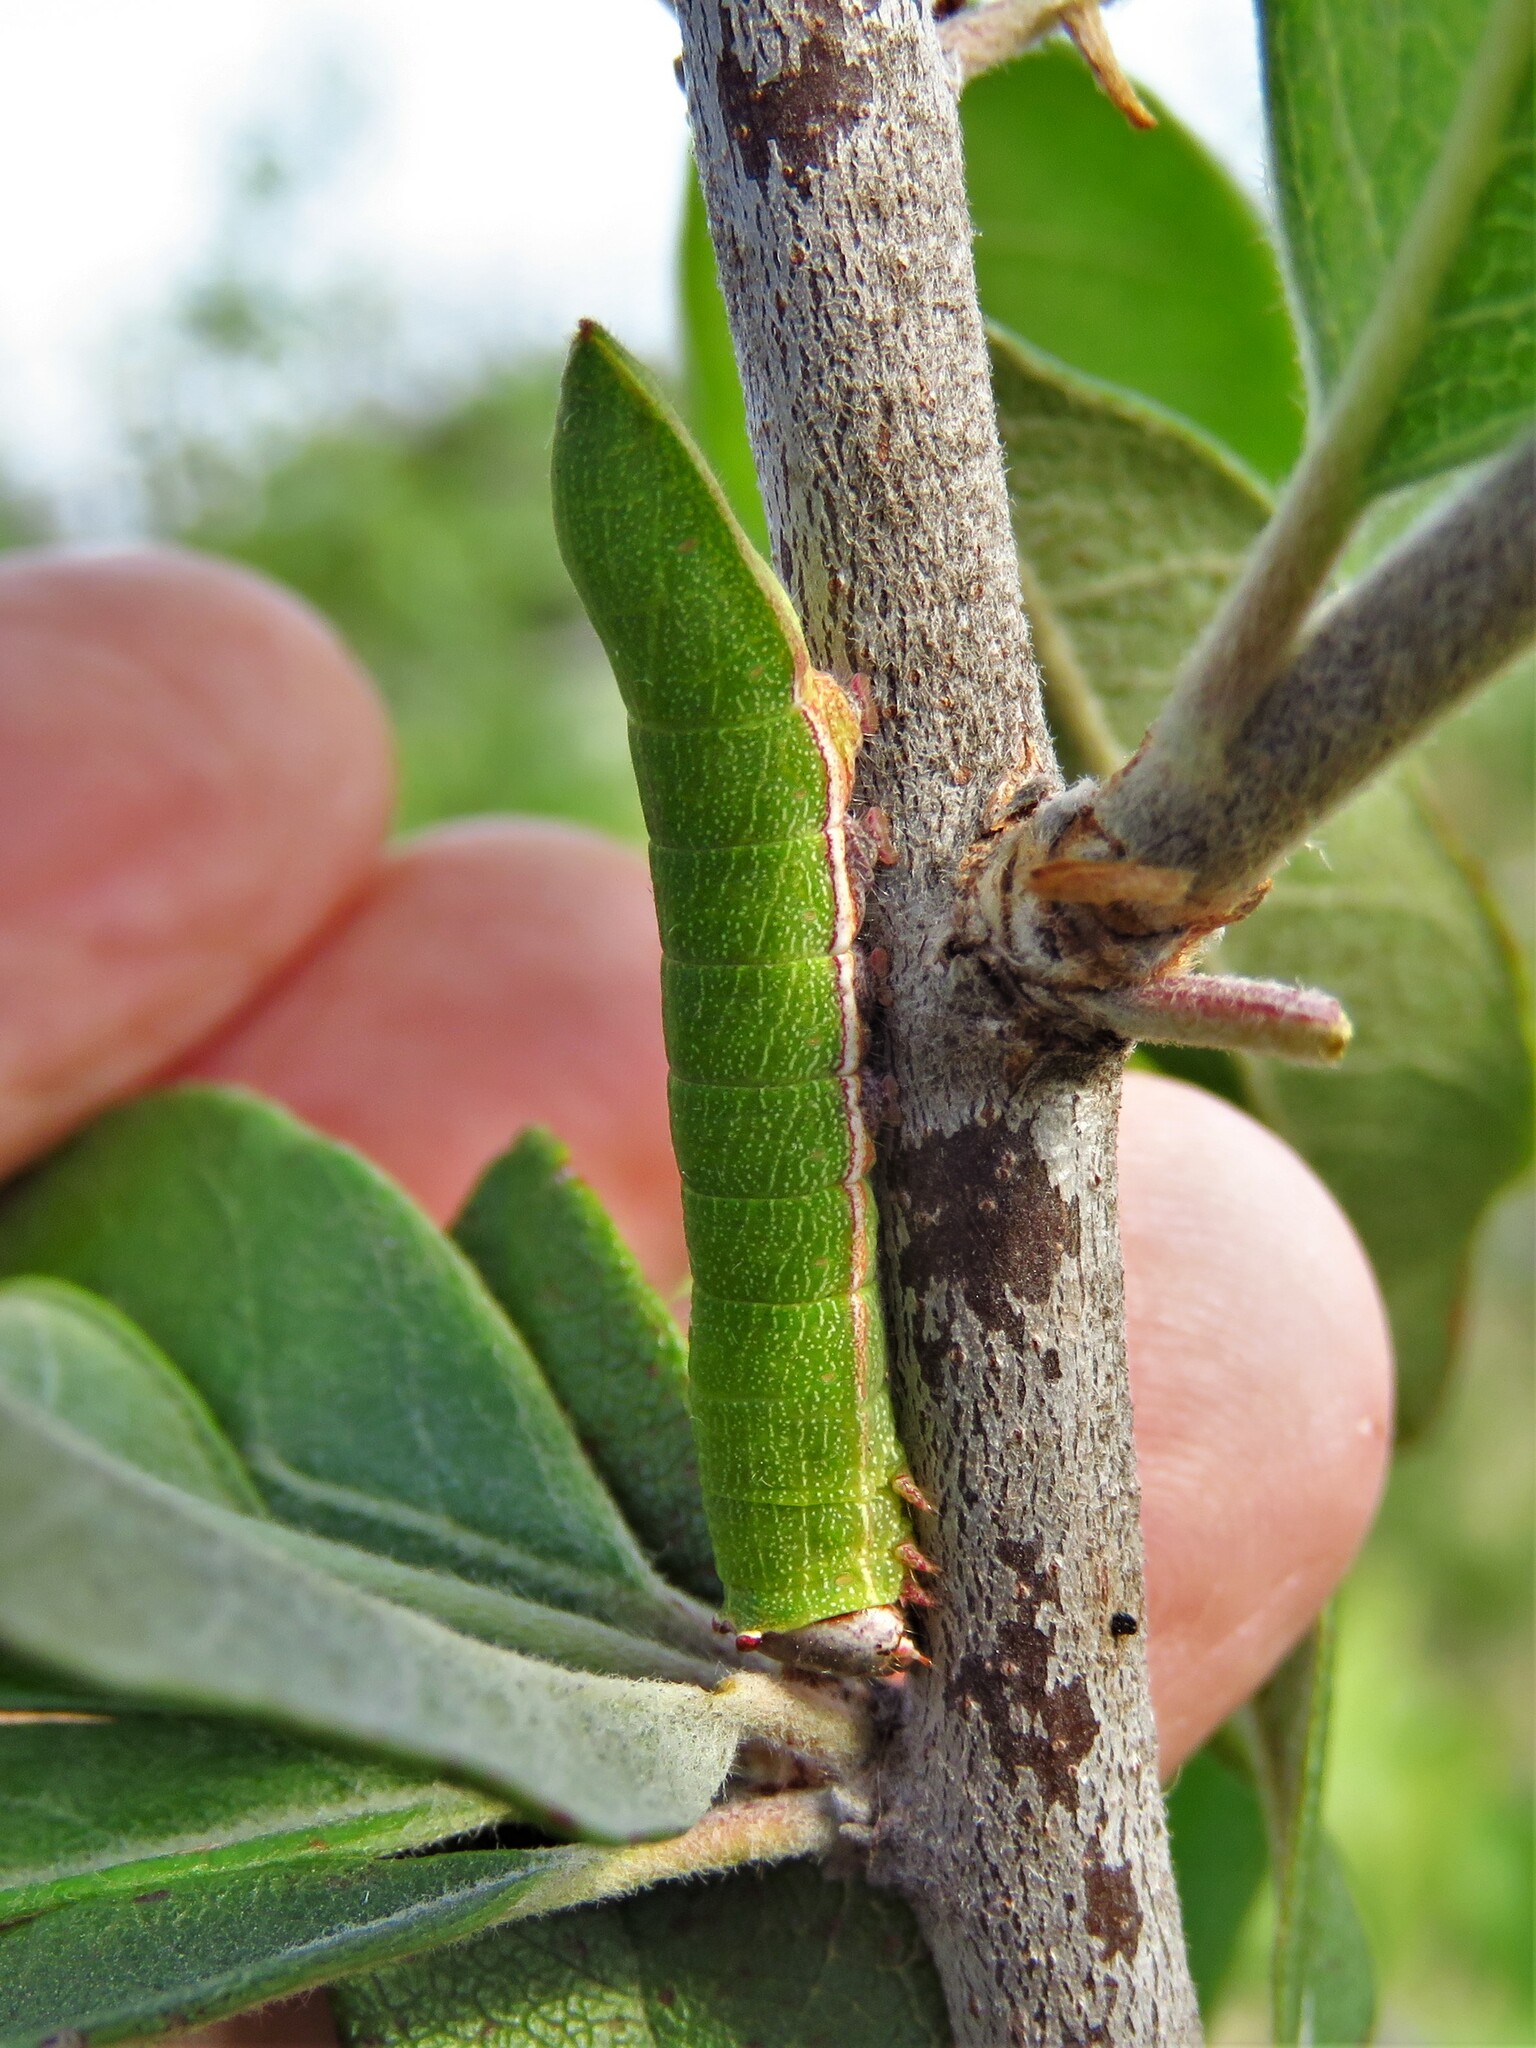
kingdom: Animalia
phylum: Arthropoda
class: Insecta
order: Lepidoptera
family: Notodontidae
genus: Litodonta
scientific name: Litodonta hydromeli
